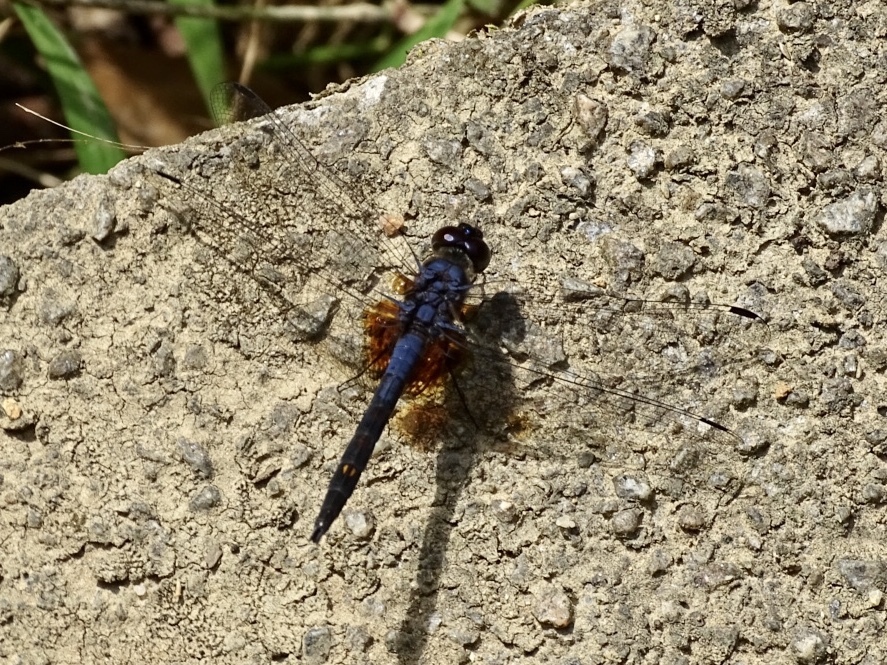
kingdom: Animalia
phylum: Arthropoda
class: Insecta
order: Odonata
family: Libellulidae
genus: Trithemis
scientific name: Trithemis festiva
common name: Indigo dropwing
